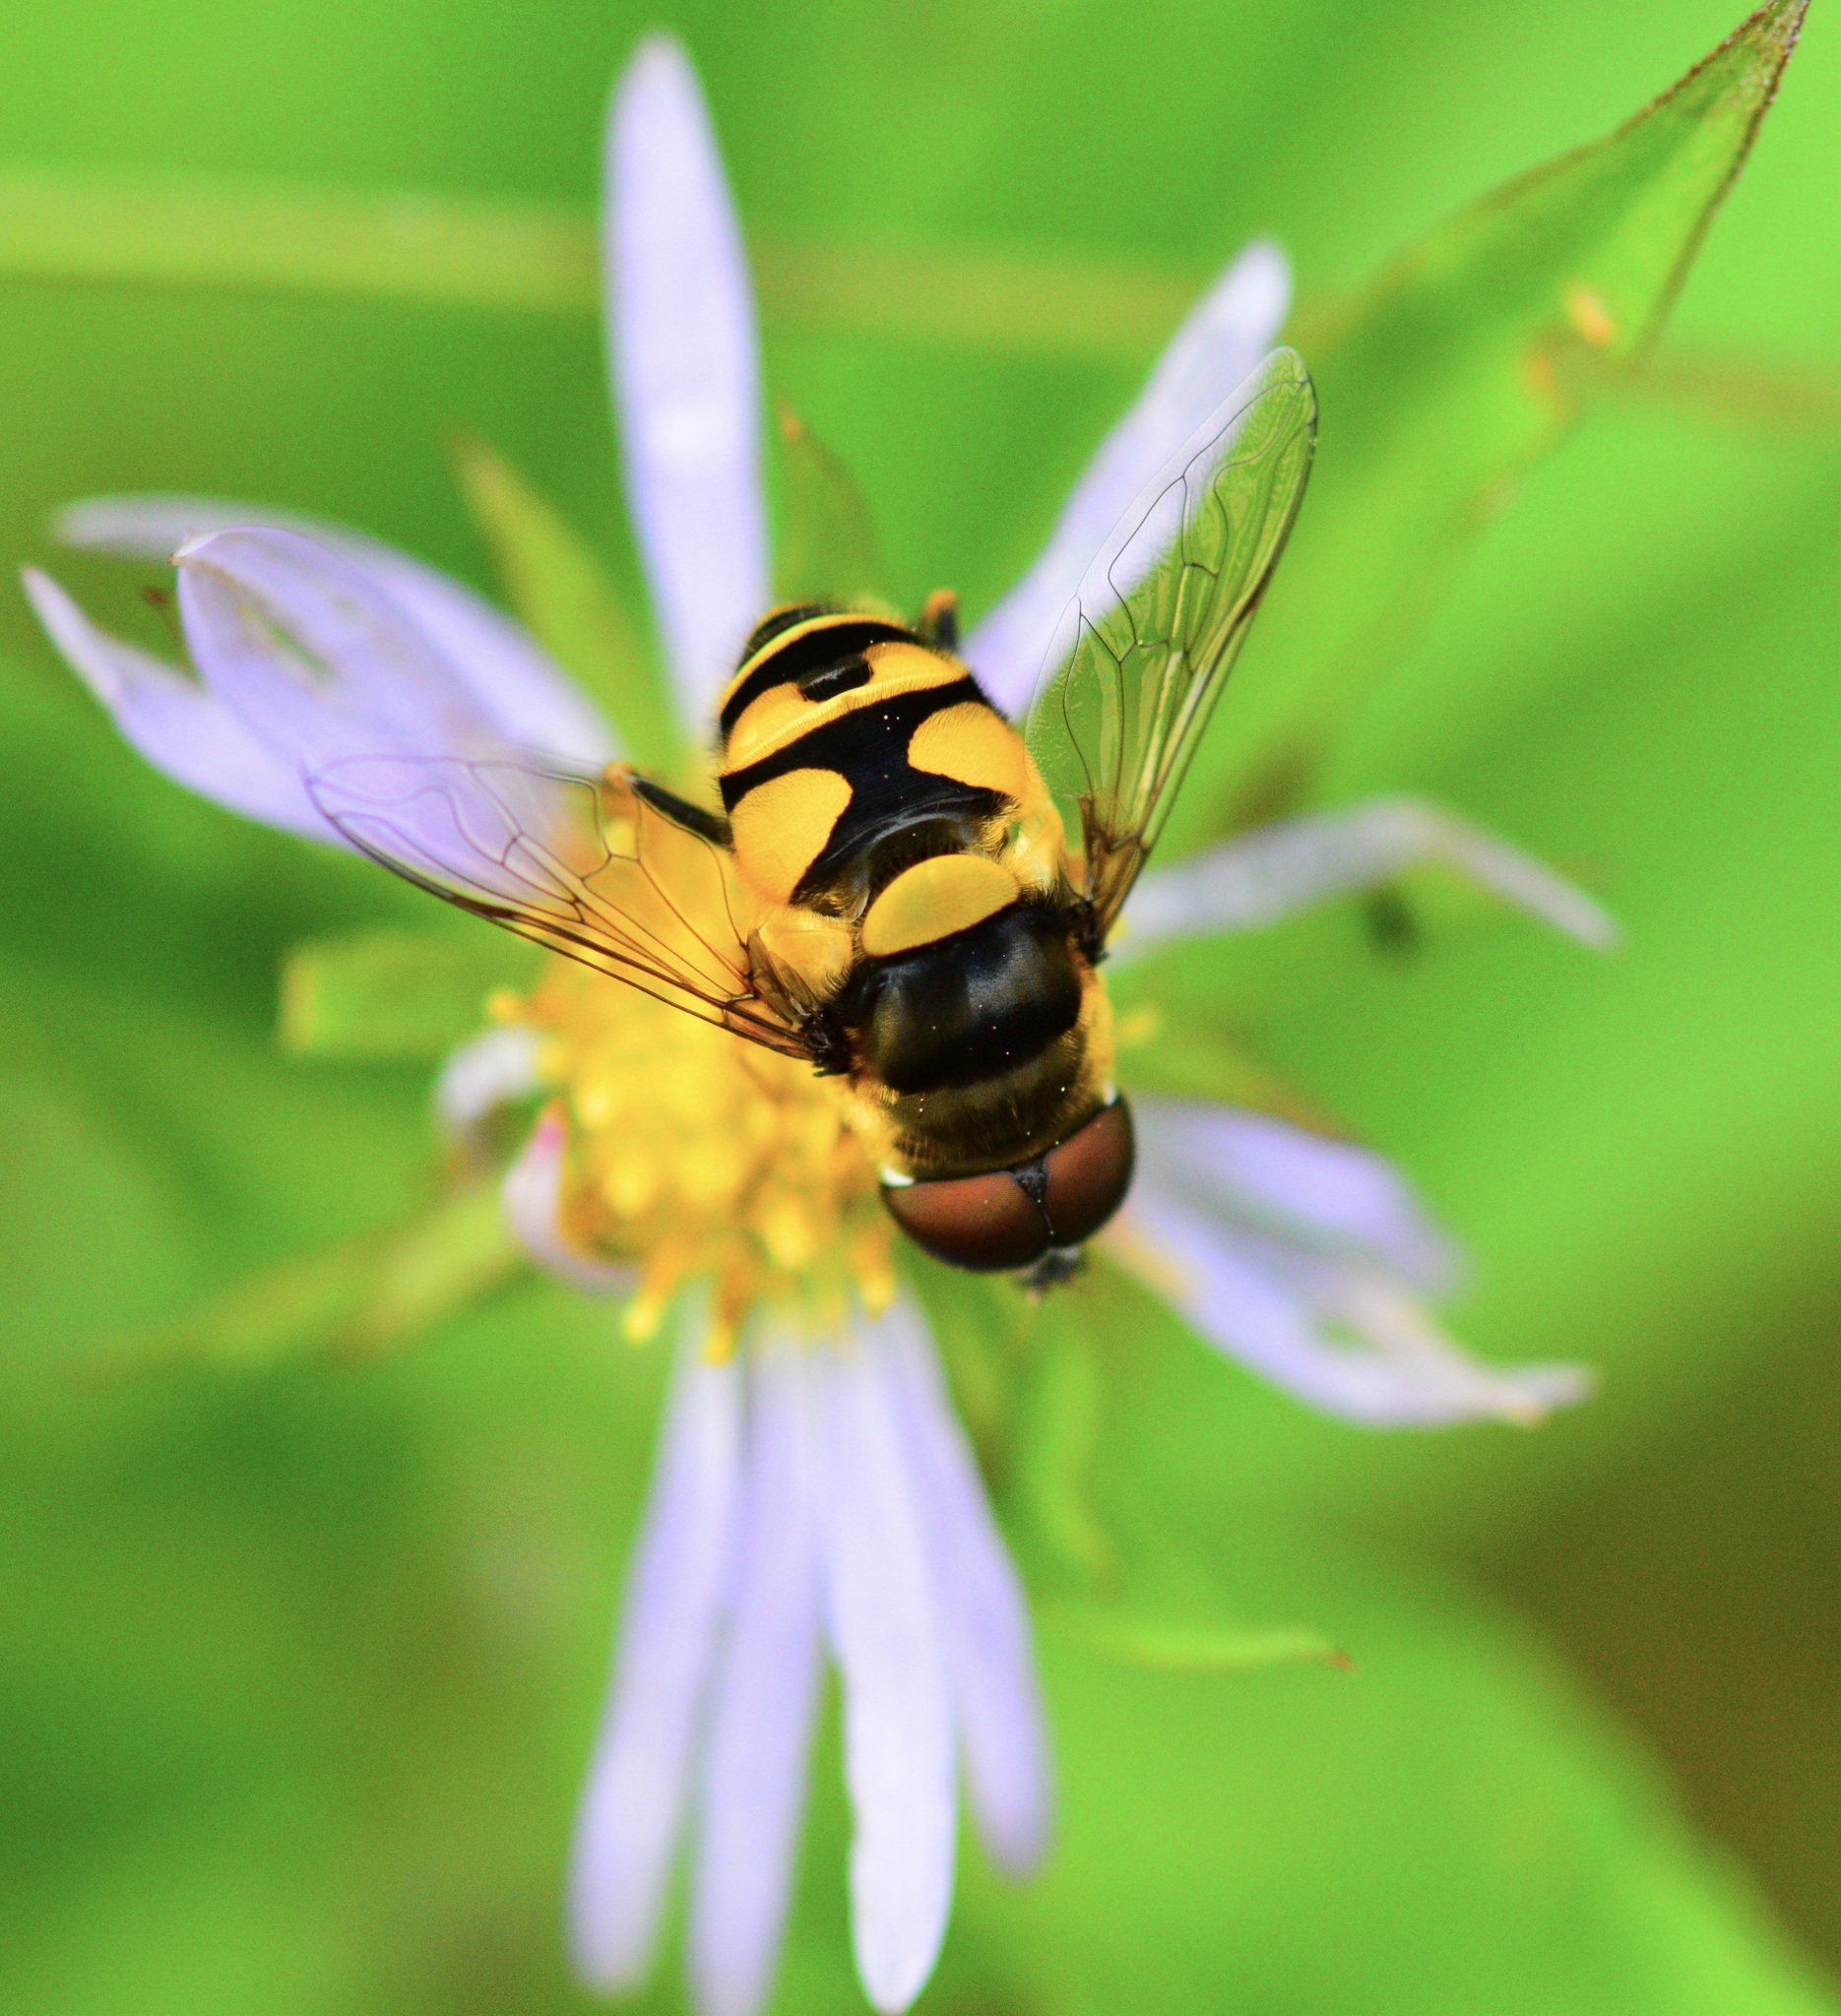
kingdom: Animalia
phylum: Arthropoda
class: Insecta
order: Diptera
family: Syrphidae
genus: Eristalis
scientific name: Eristalis transversa
